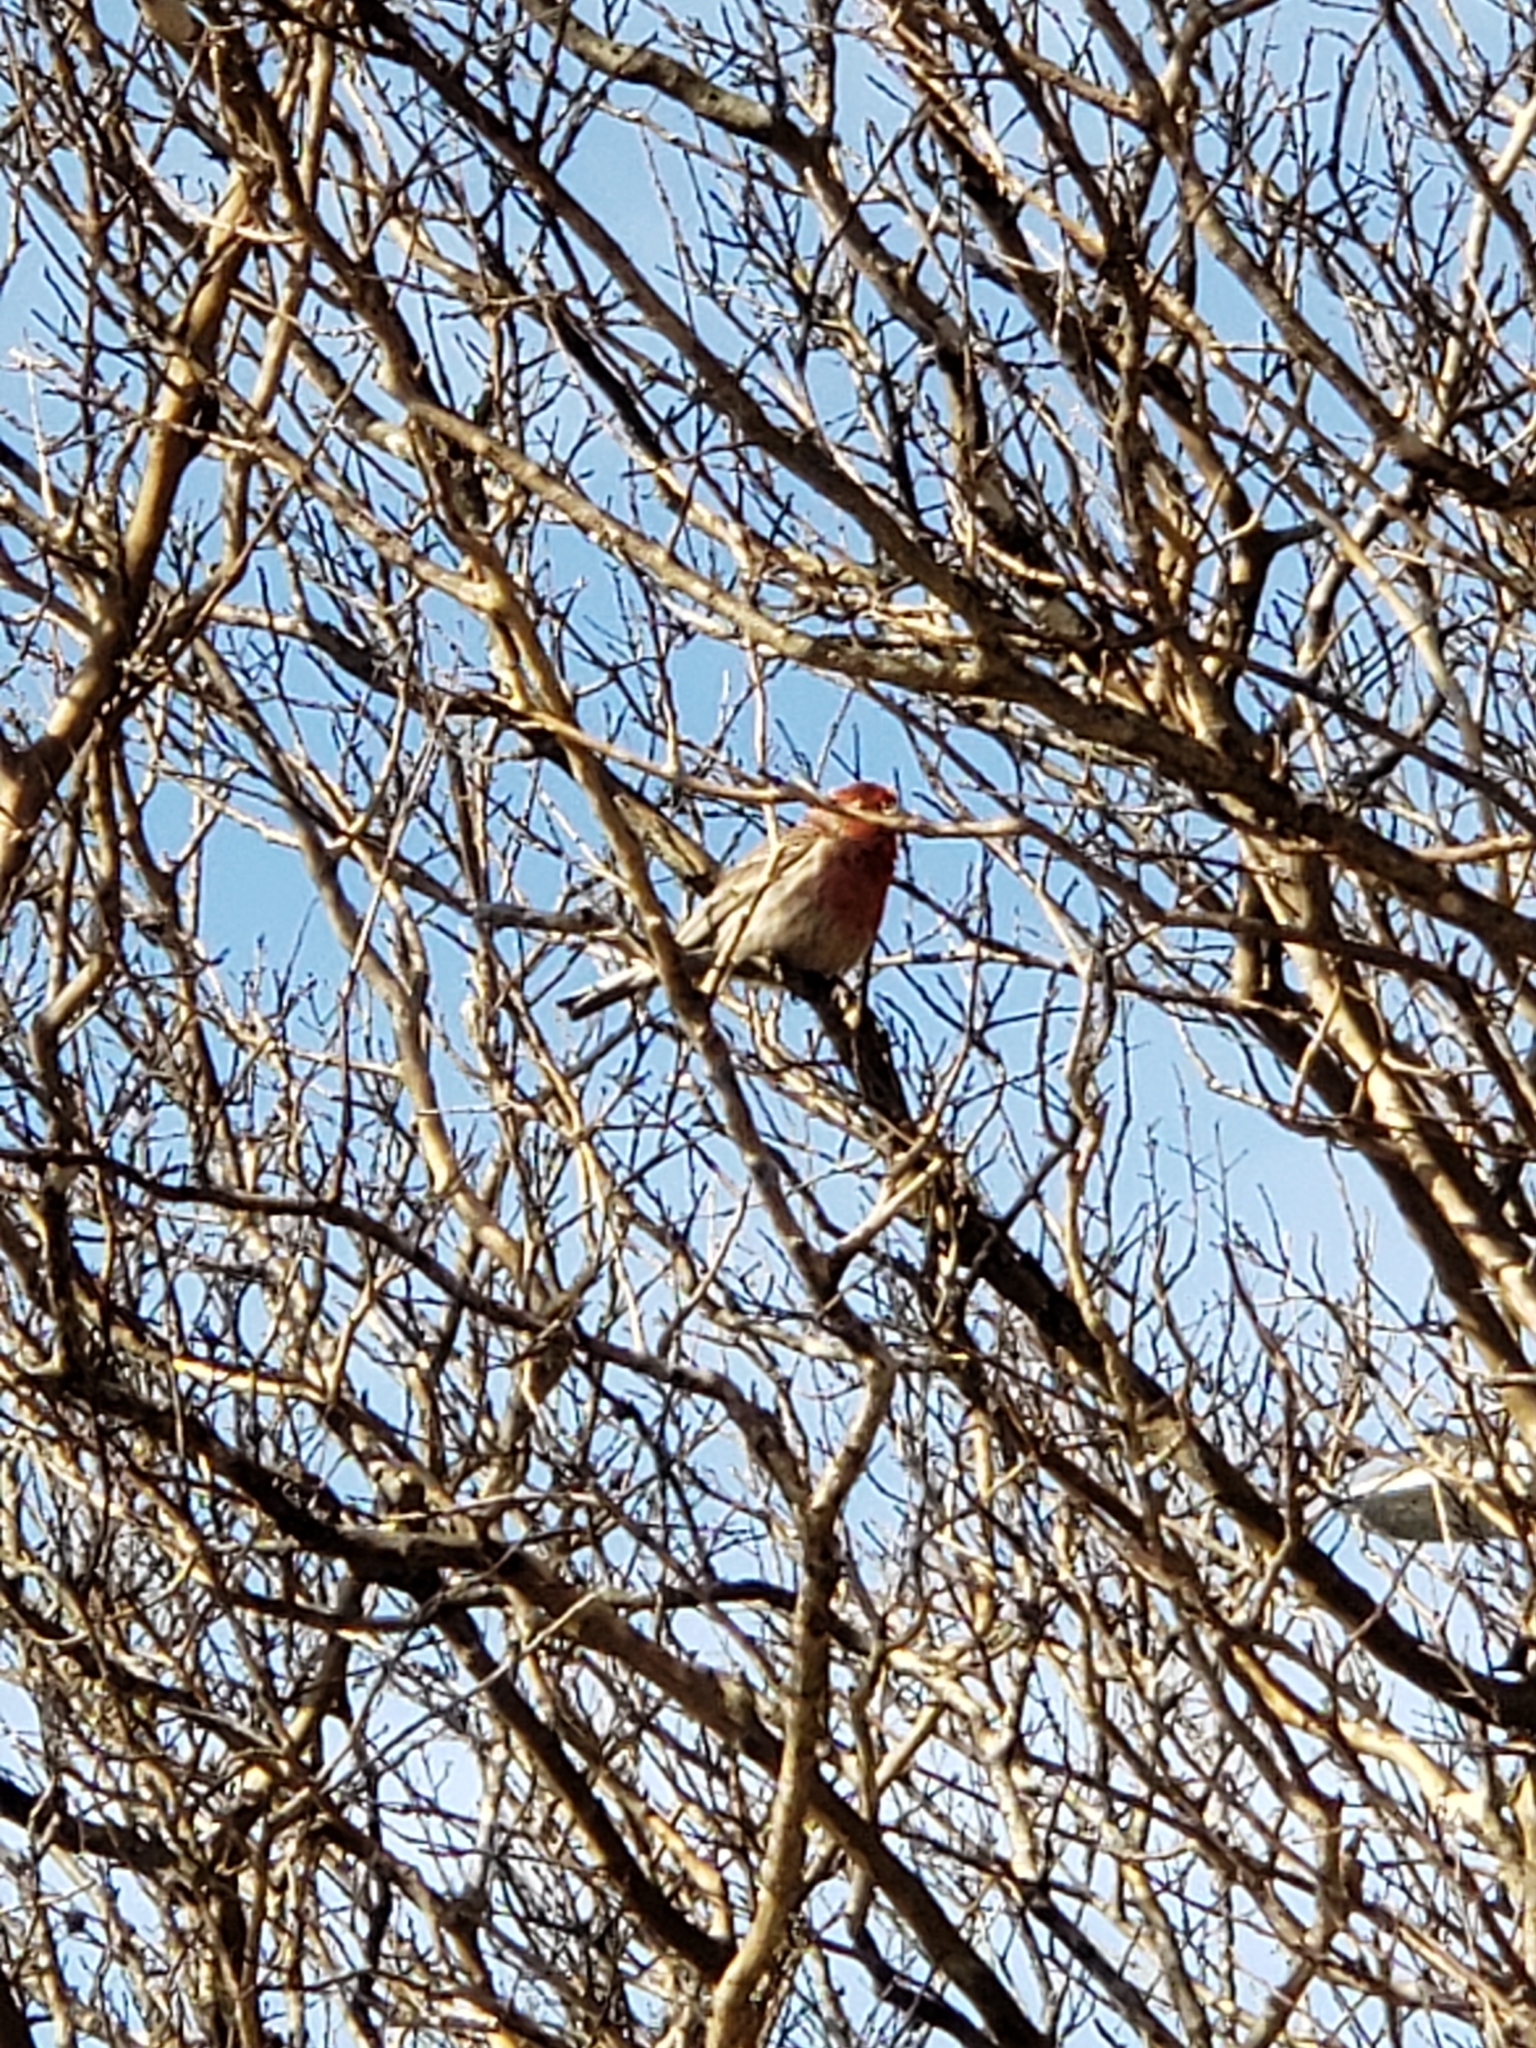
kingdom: Animalia
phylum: Chordata
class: Aves
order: Passeriformes
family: Fringillidae
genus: Haemorhous
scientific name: Haemorhous mexicanus
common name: House finch
